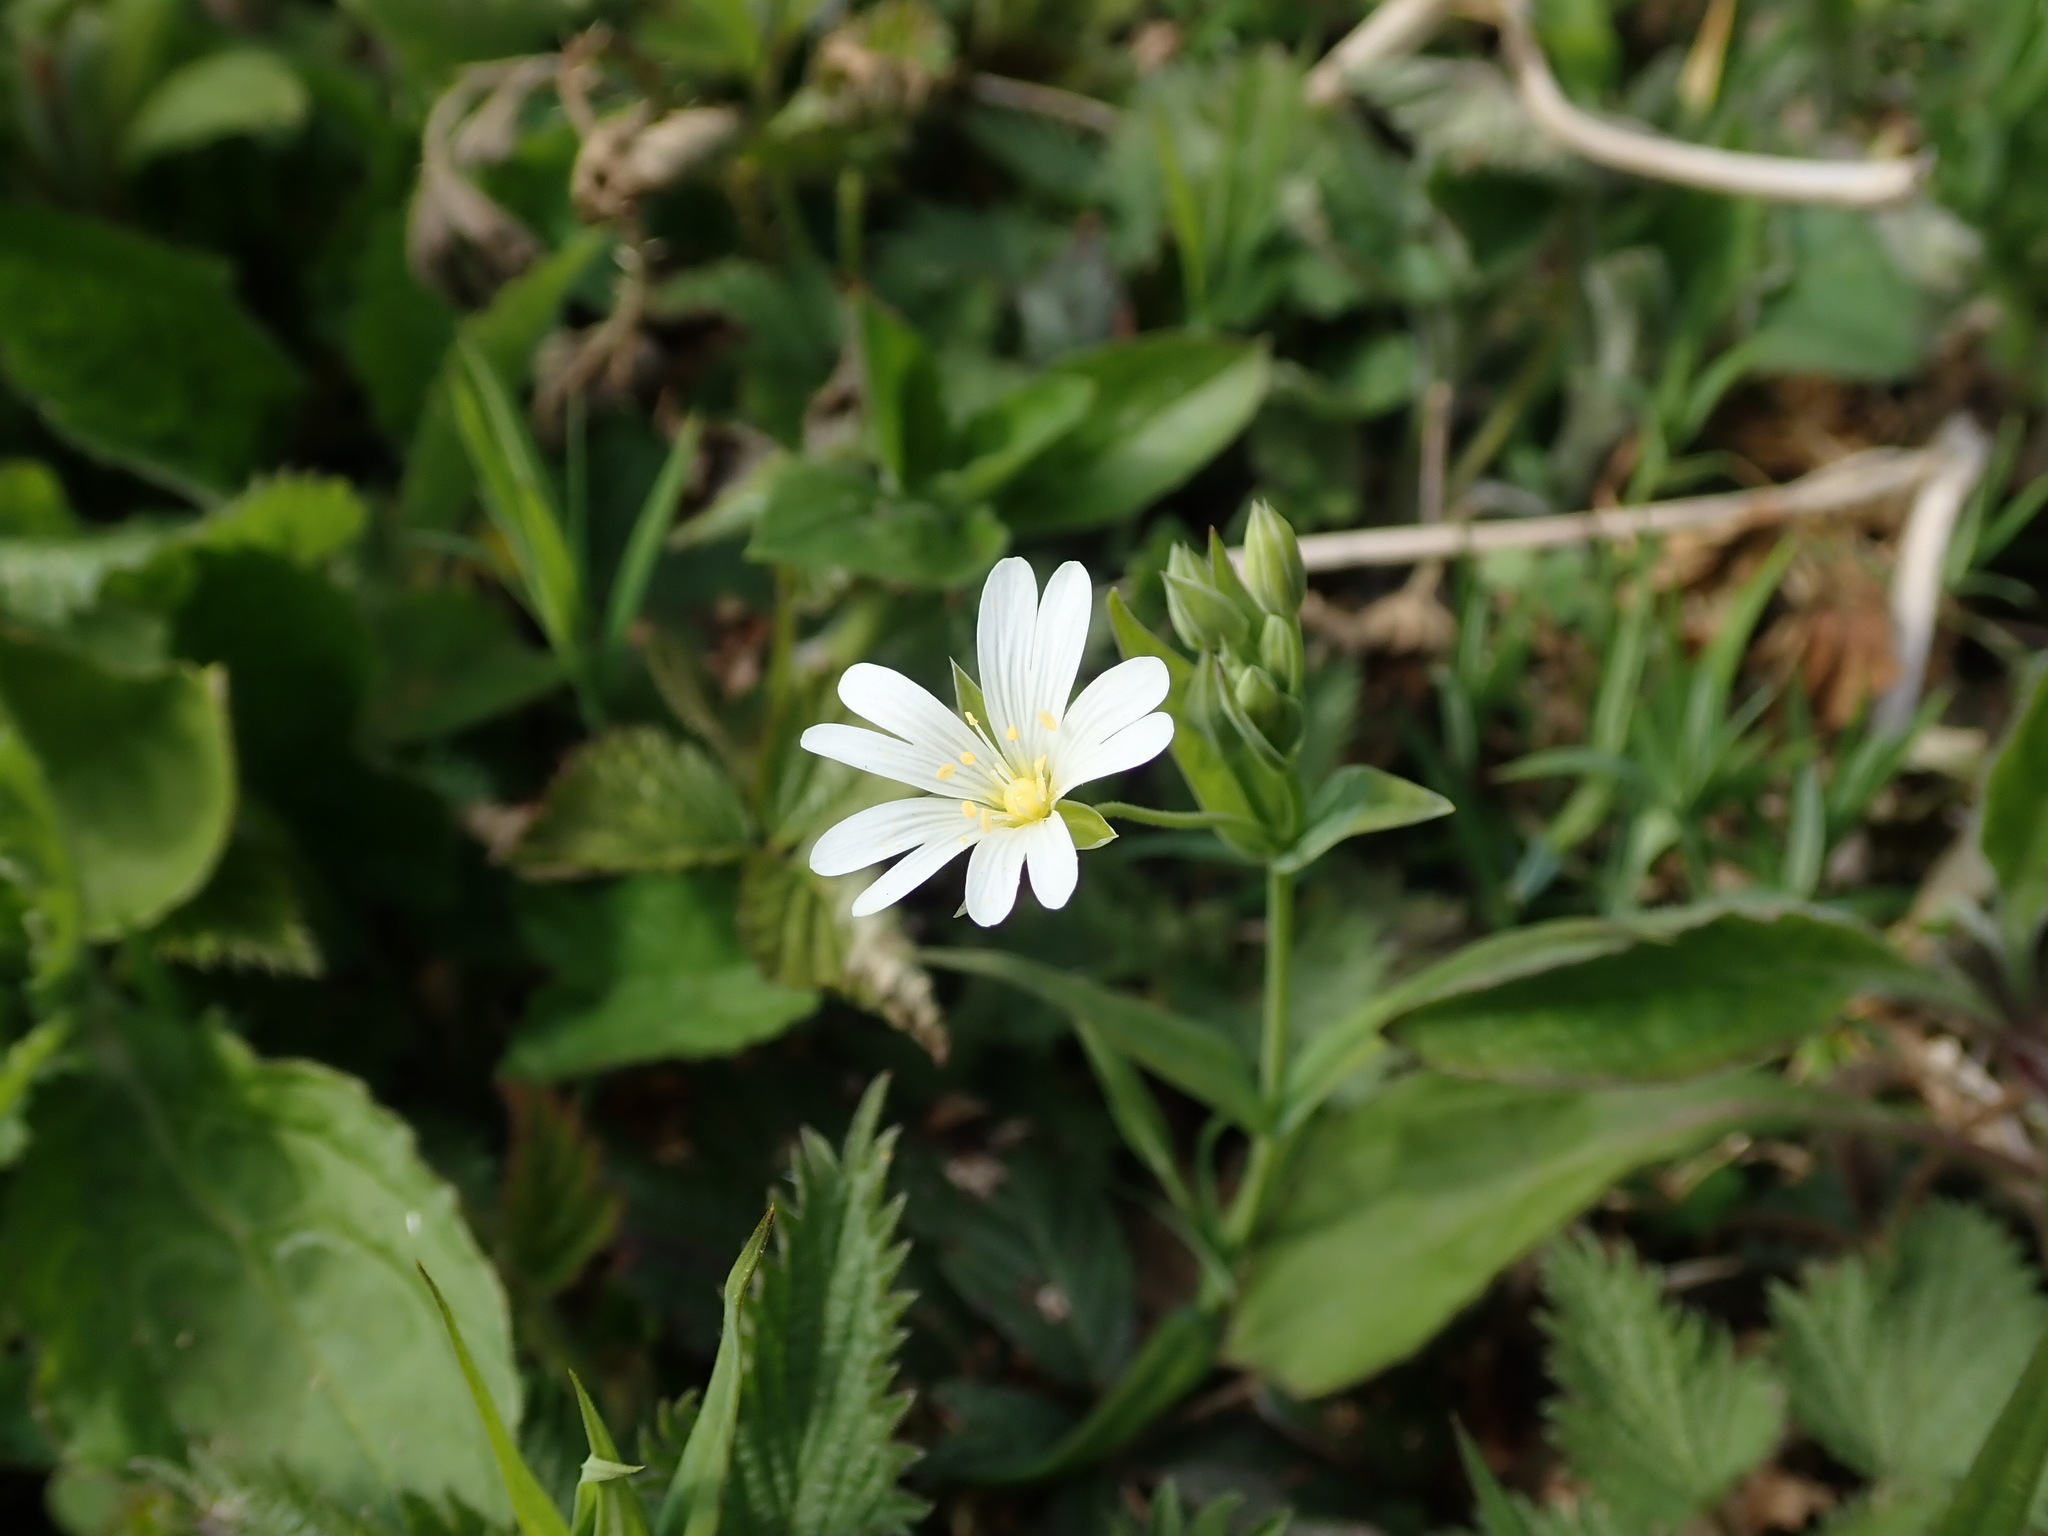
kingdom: Plantae
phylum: Tracheophyta
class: Magnoliopsida
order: Caryophyllales
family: Caryophyllaceae
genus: Rabelera
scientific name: Rabelera holostea
